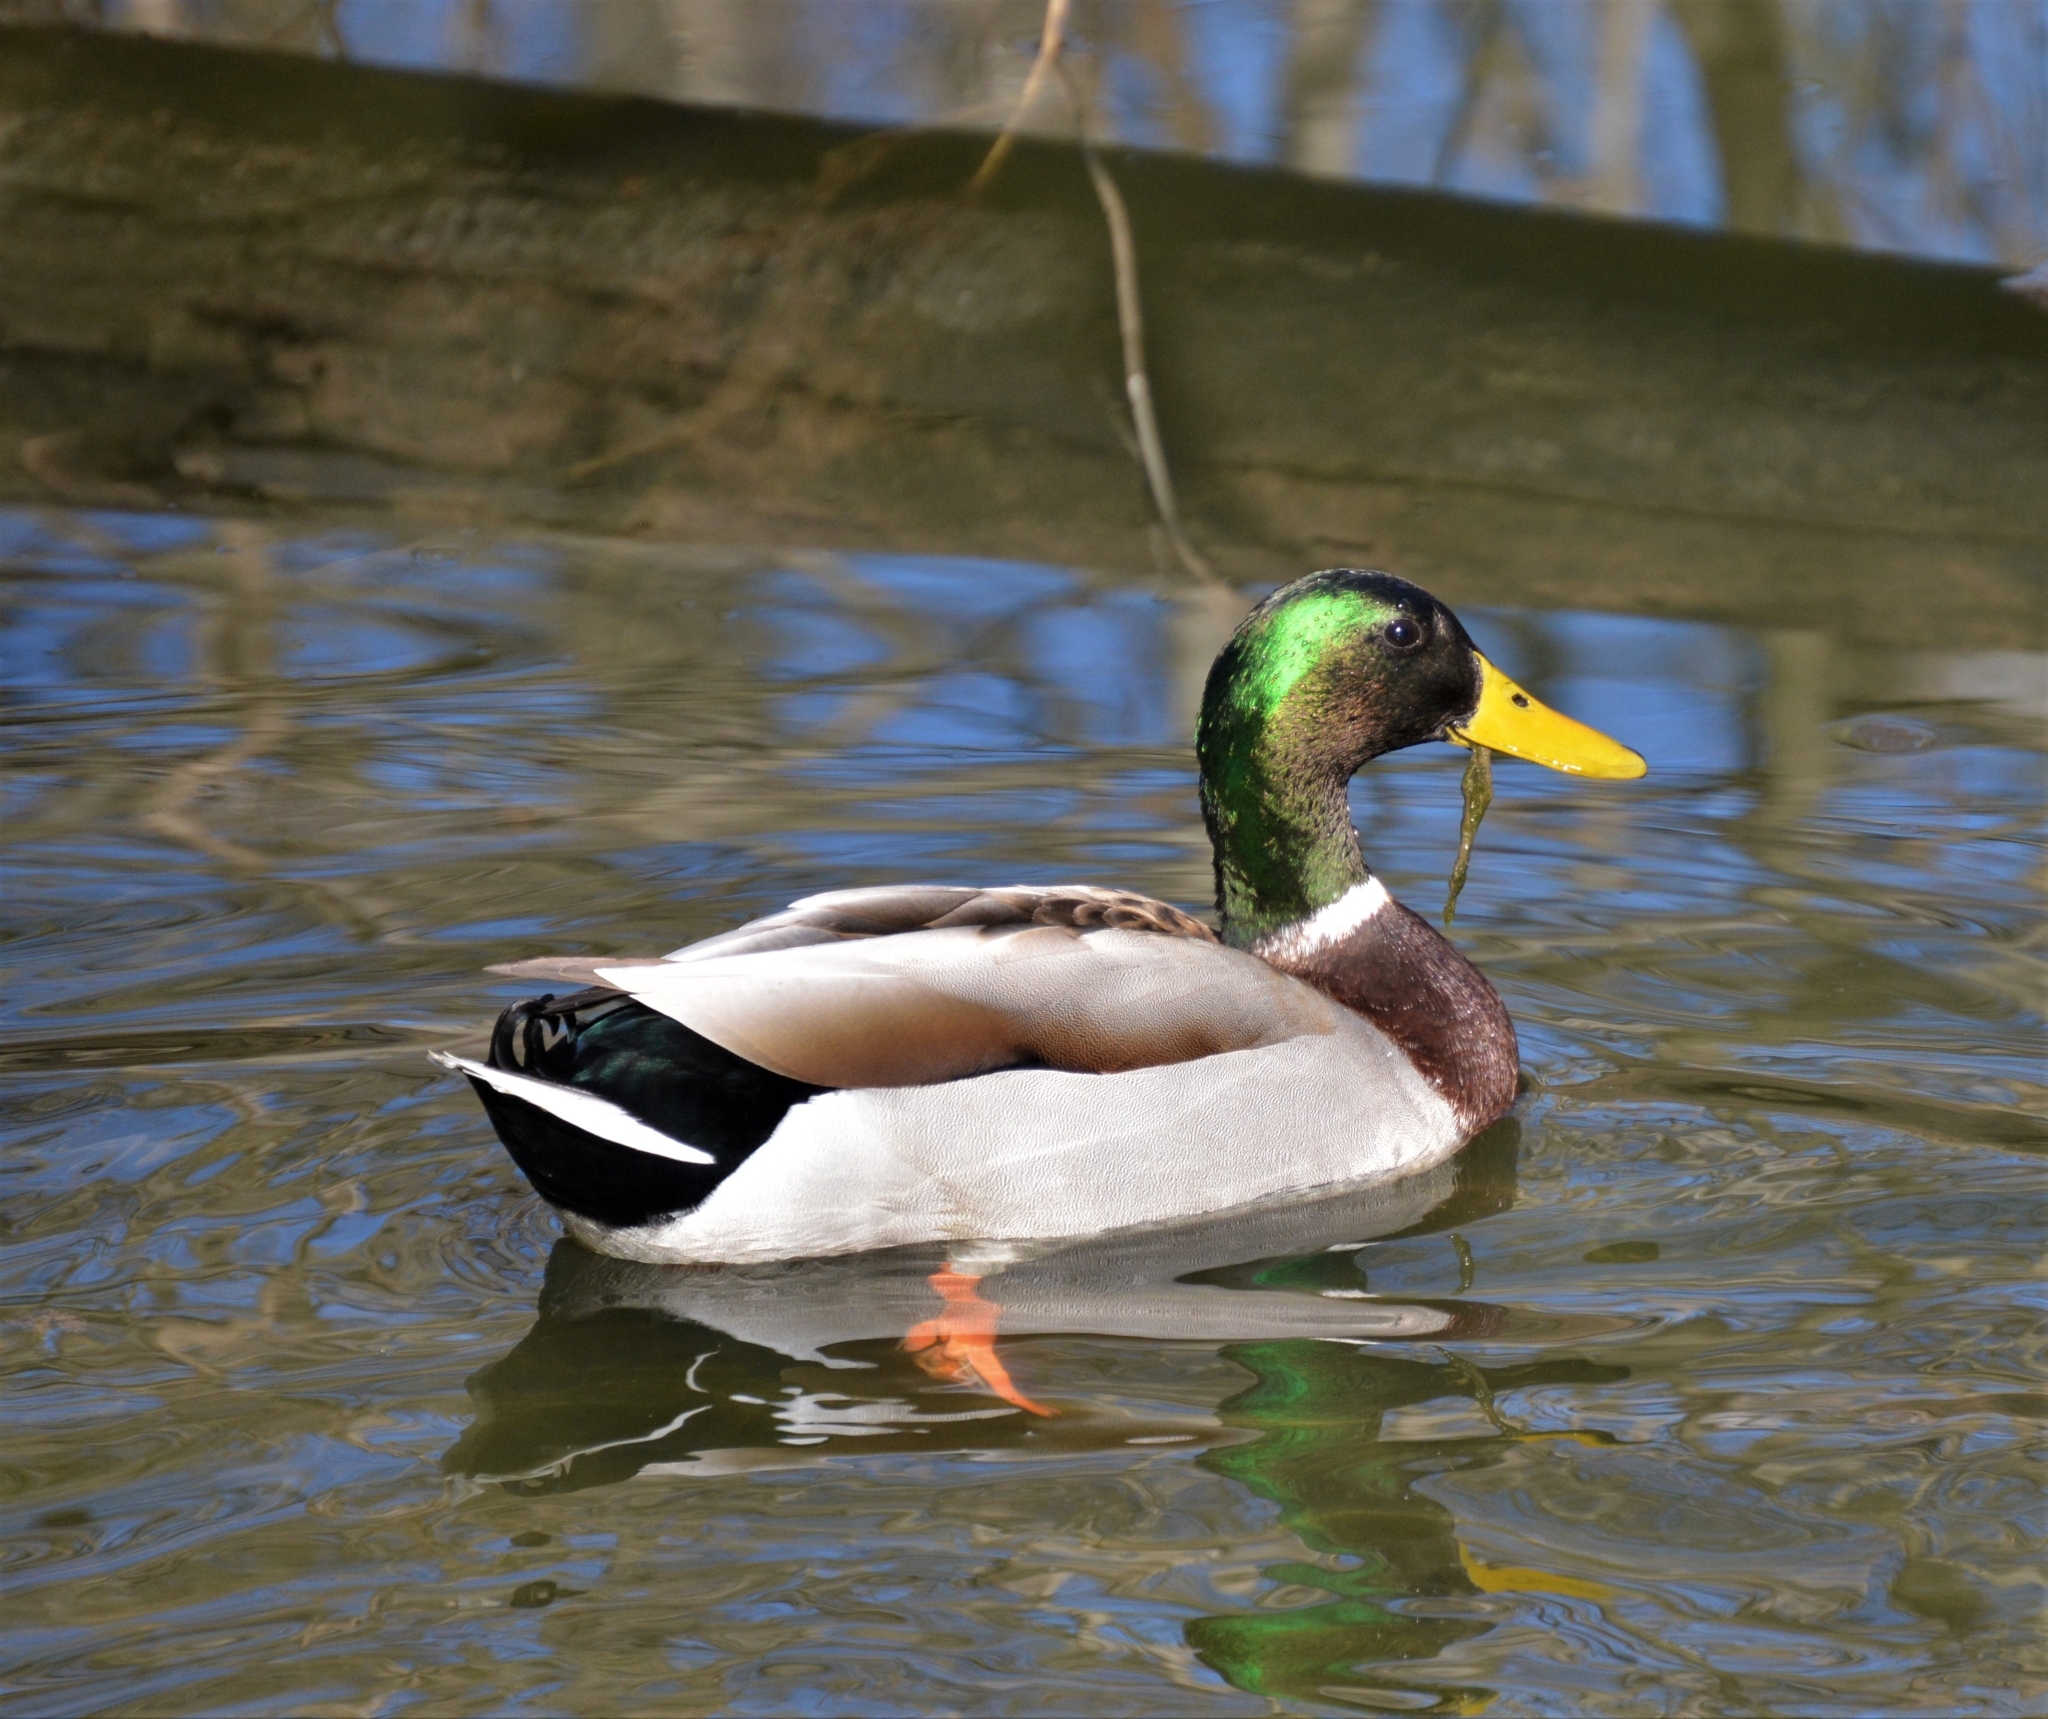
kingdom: Animalia
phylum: Chordata
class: Aves
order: Anseriformes
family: Anatidae
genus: Anas
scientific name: Anas platyrhynchos
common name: Mallard
